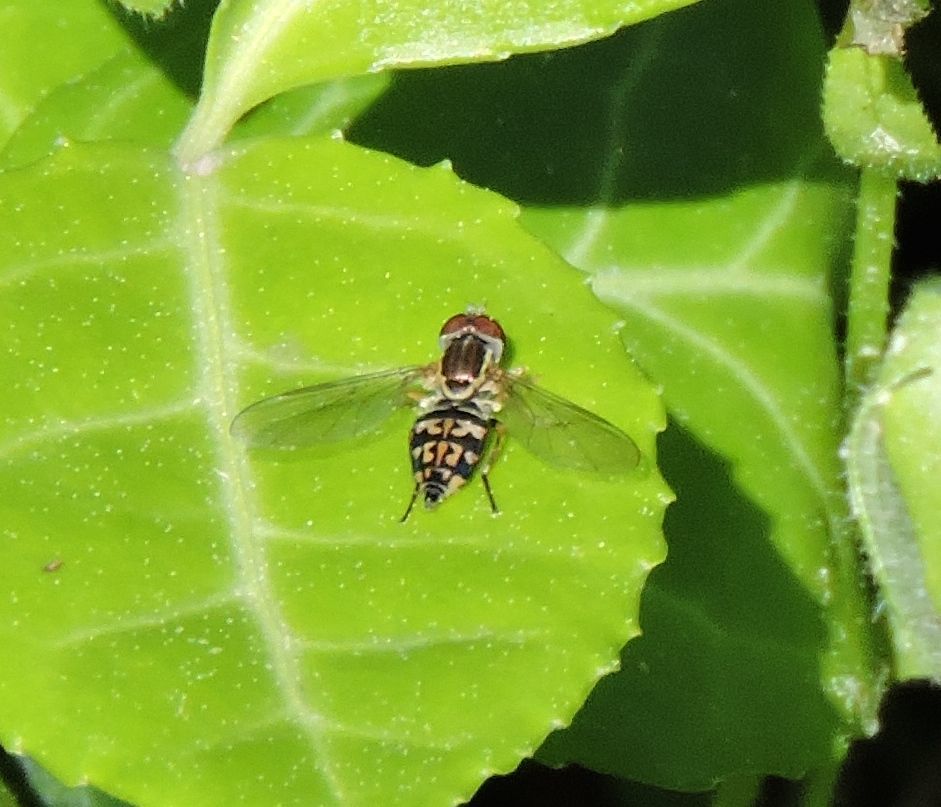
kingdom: Animalia
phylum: Arthropoda
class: Insecta
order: Diptera
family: Syrphidae
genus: Toxomerus
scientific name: Toxomerus geminatus
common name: Eastern calligrapher
